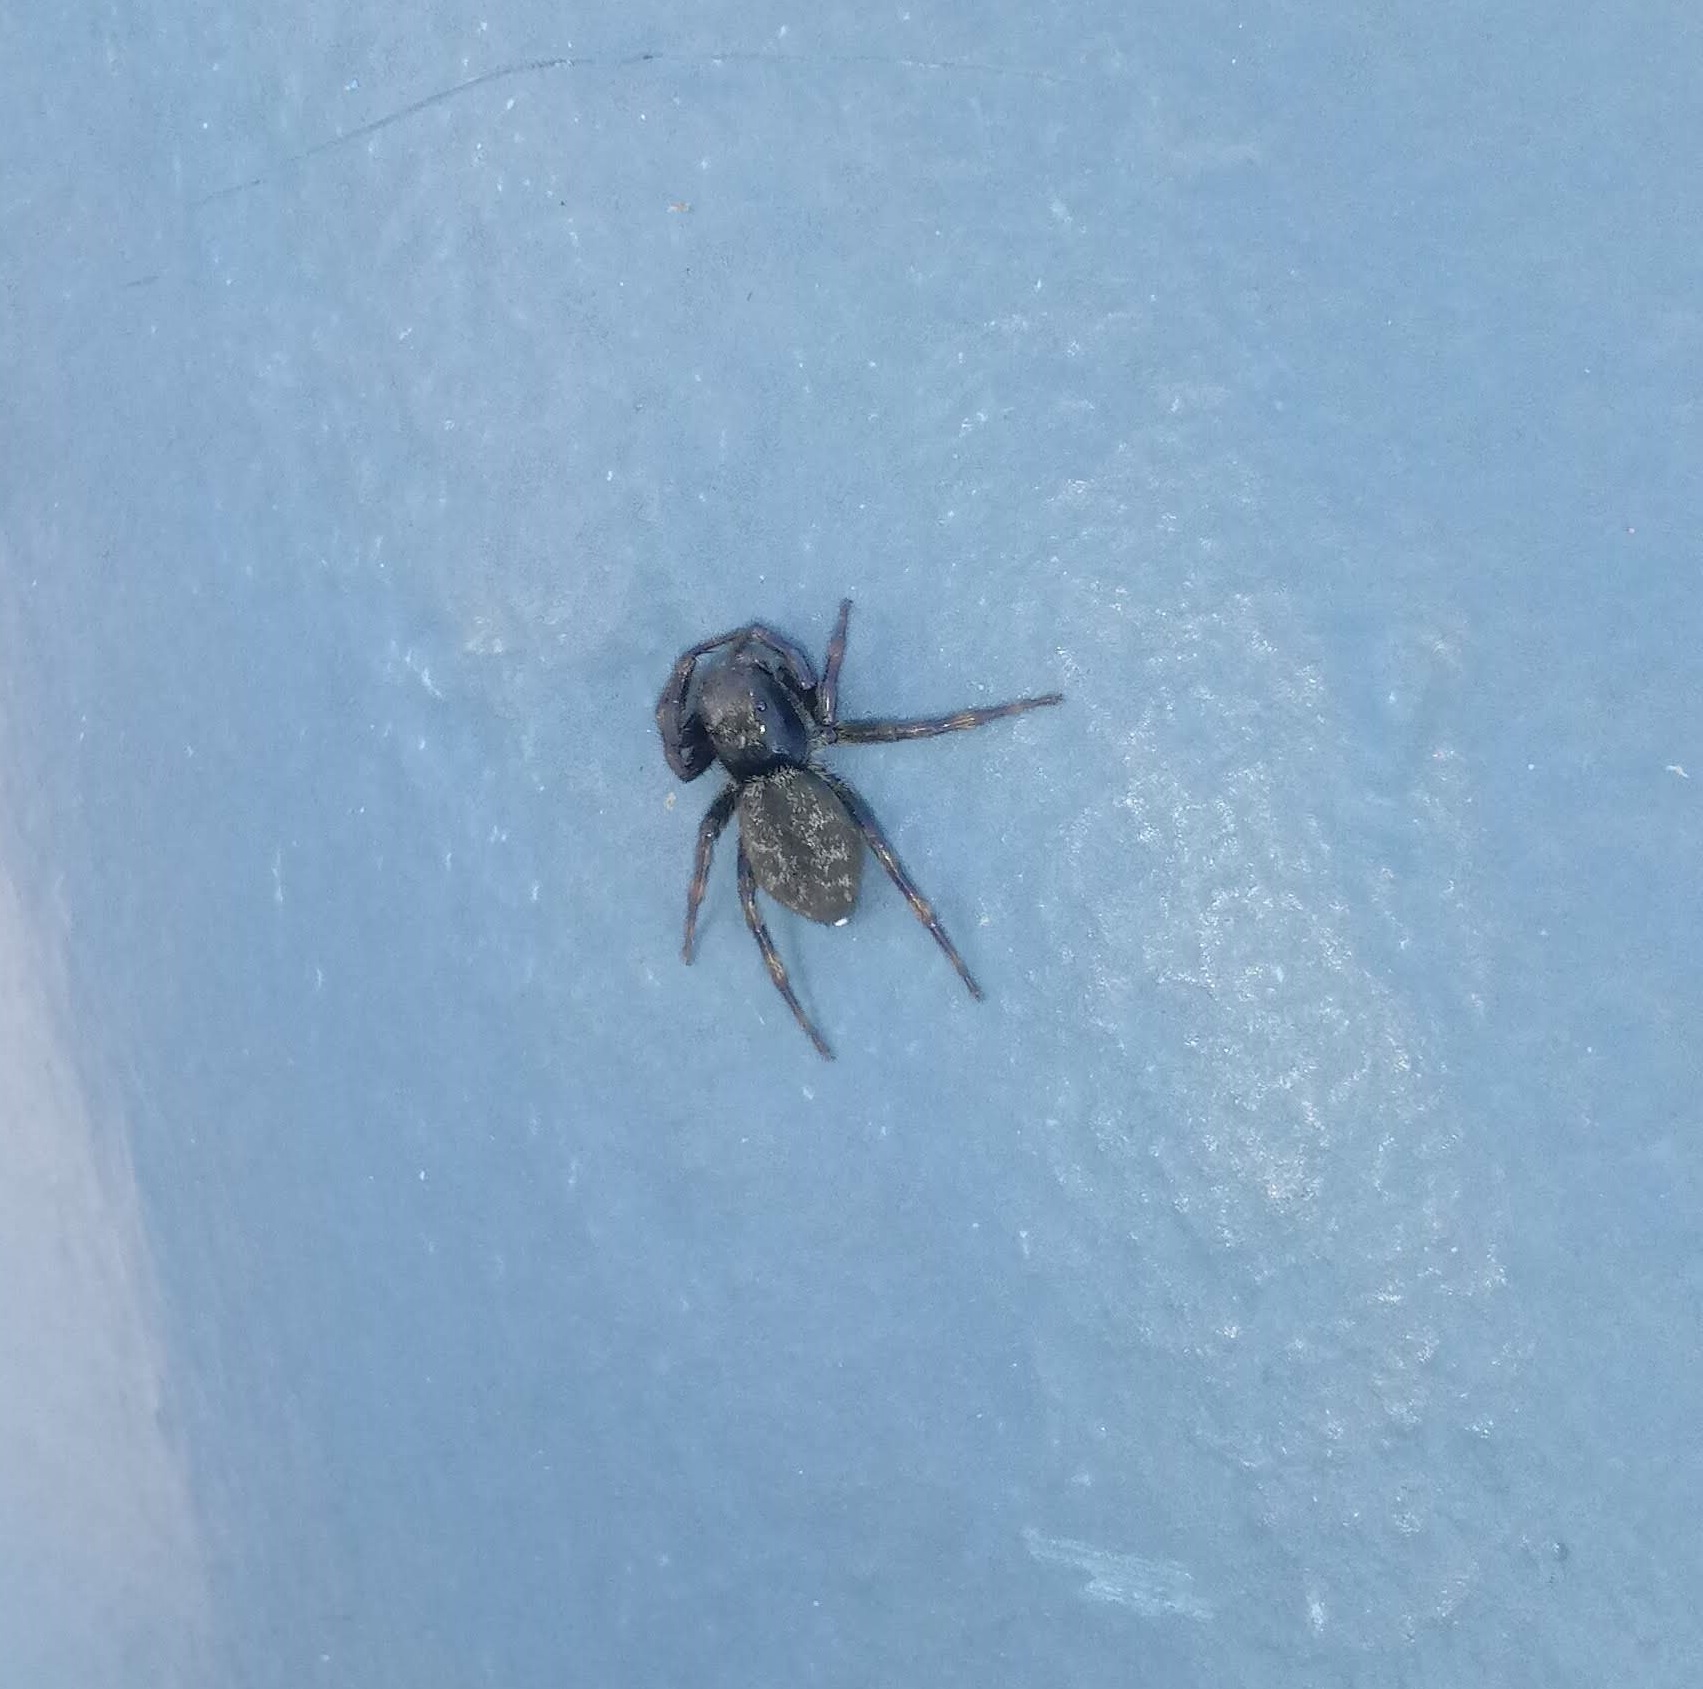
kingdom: Animalia
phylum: Arthropoda
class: Arachnida
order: Araneae
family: Salticidae
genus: Hakka
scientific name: Hakka himeshimensis
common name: Jumping spider
